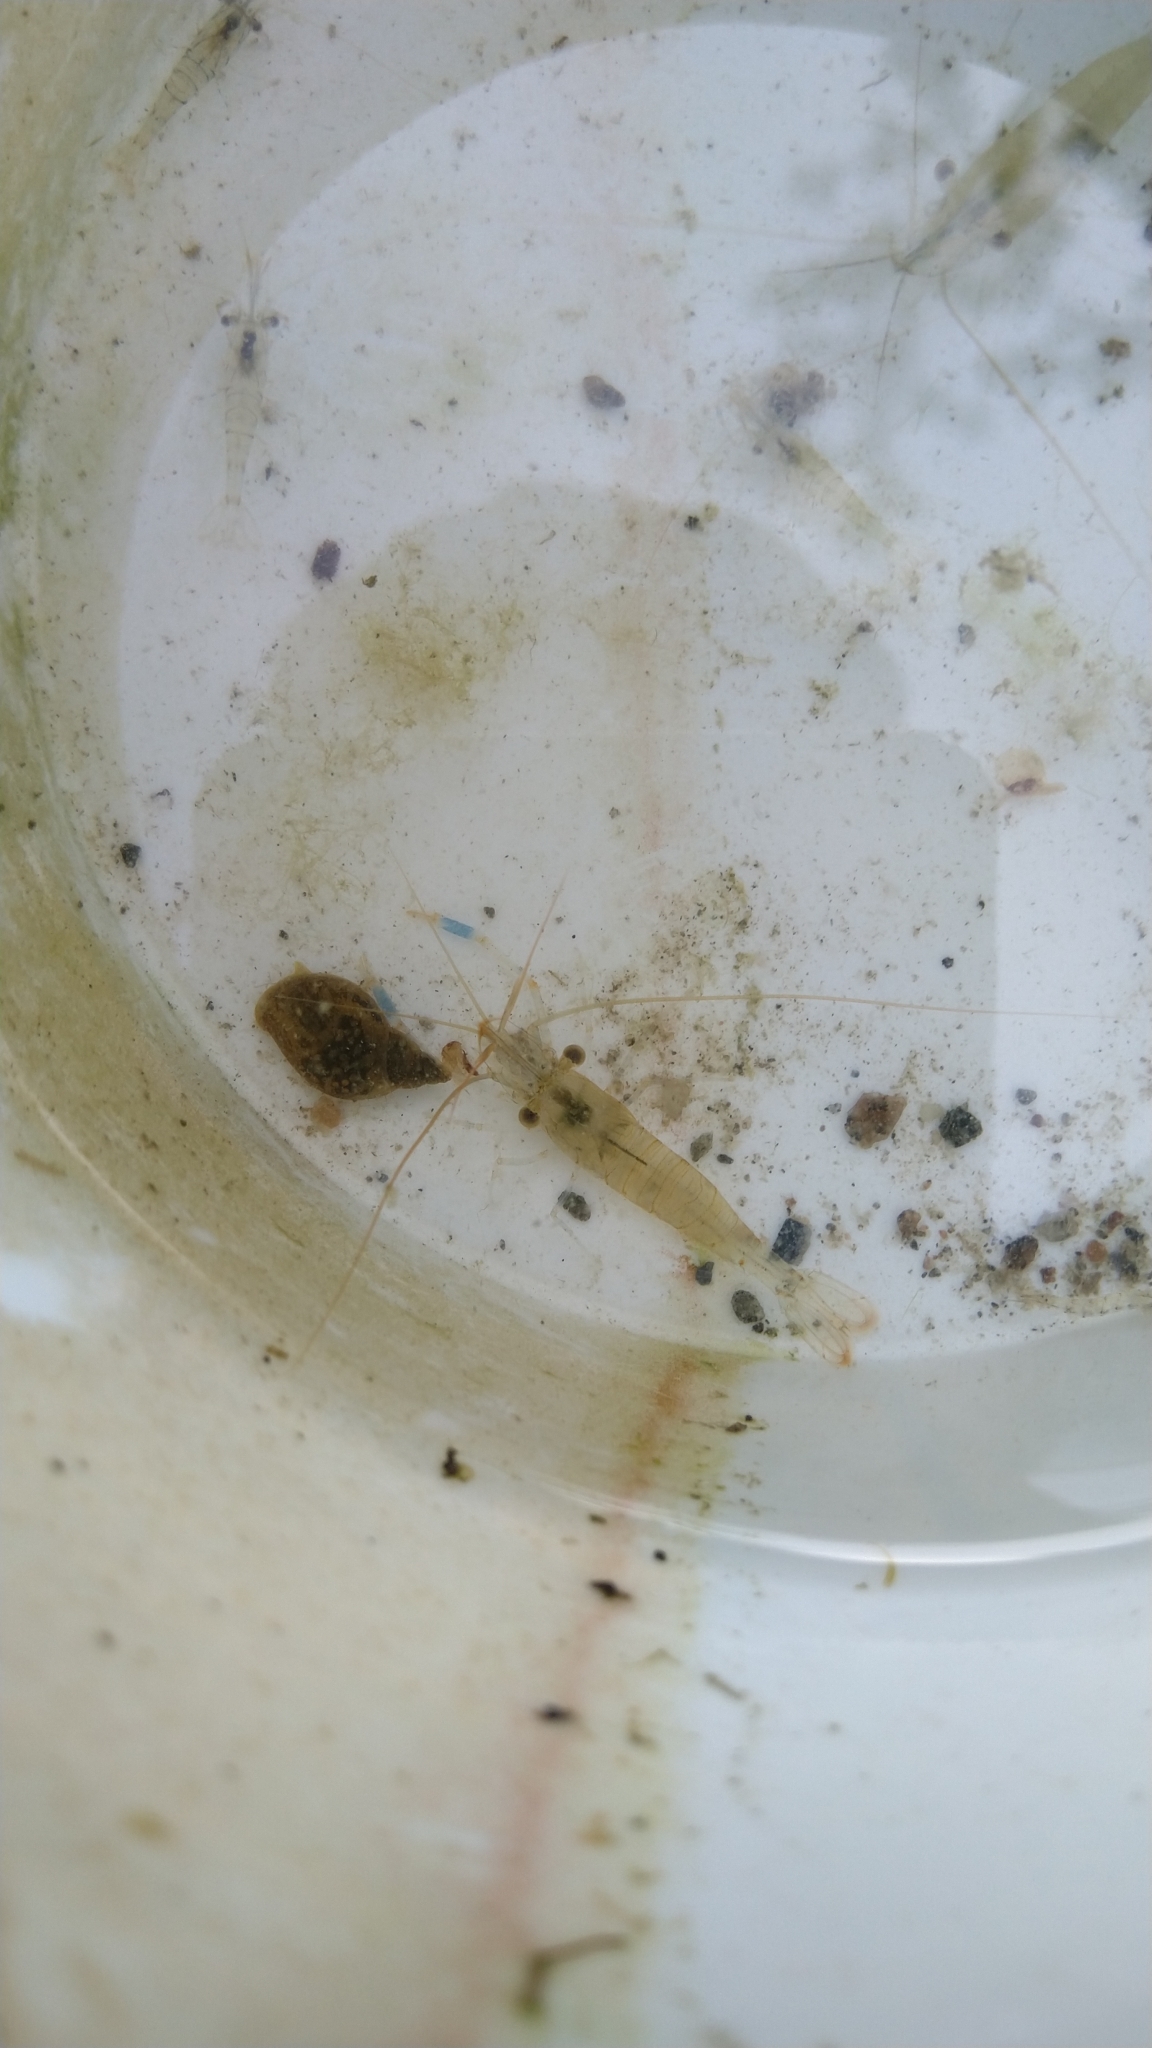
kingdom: Animalia
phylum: Arthropoda
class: Malacostraca
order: Decapoda
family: Palaemonidae
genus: Palaemon
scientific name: Palaemon elegans
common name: Grass prawm
